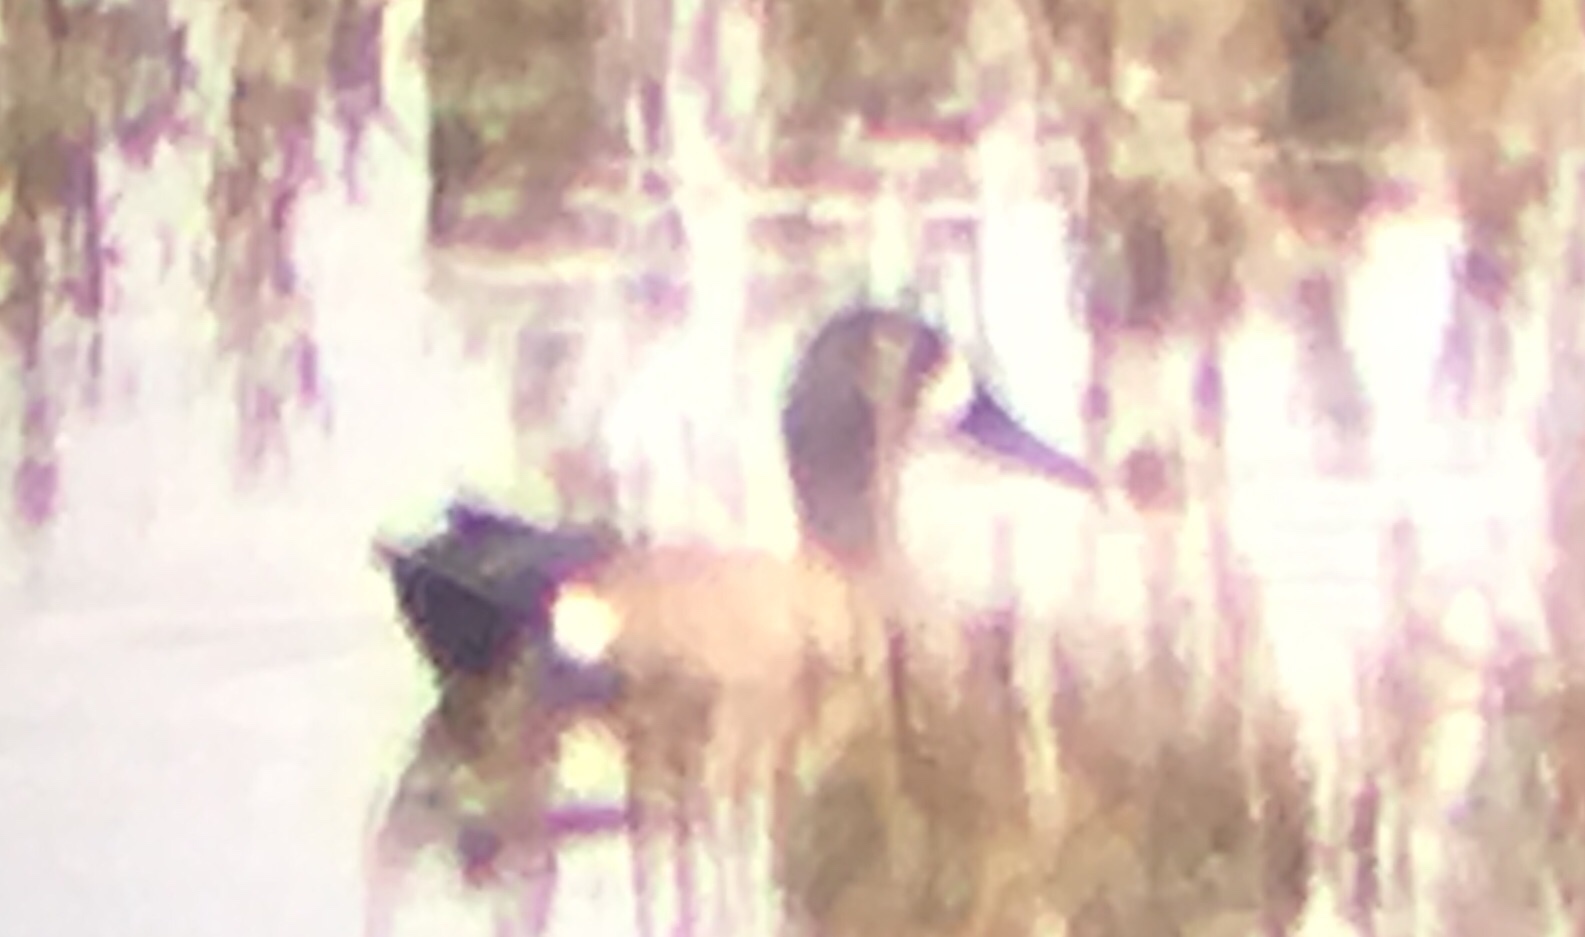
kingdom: Animalia
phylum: Chordata
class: Aves
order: Anseriformes
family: Anatidae
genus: Spatula
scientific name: Spatula discors
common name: Blue-winged teal
